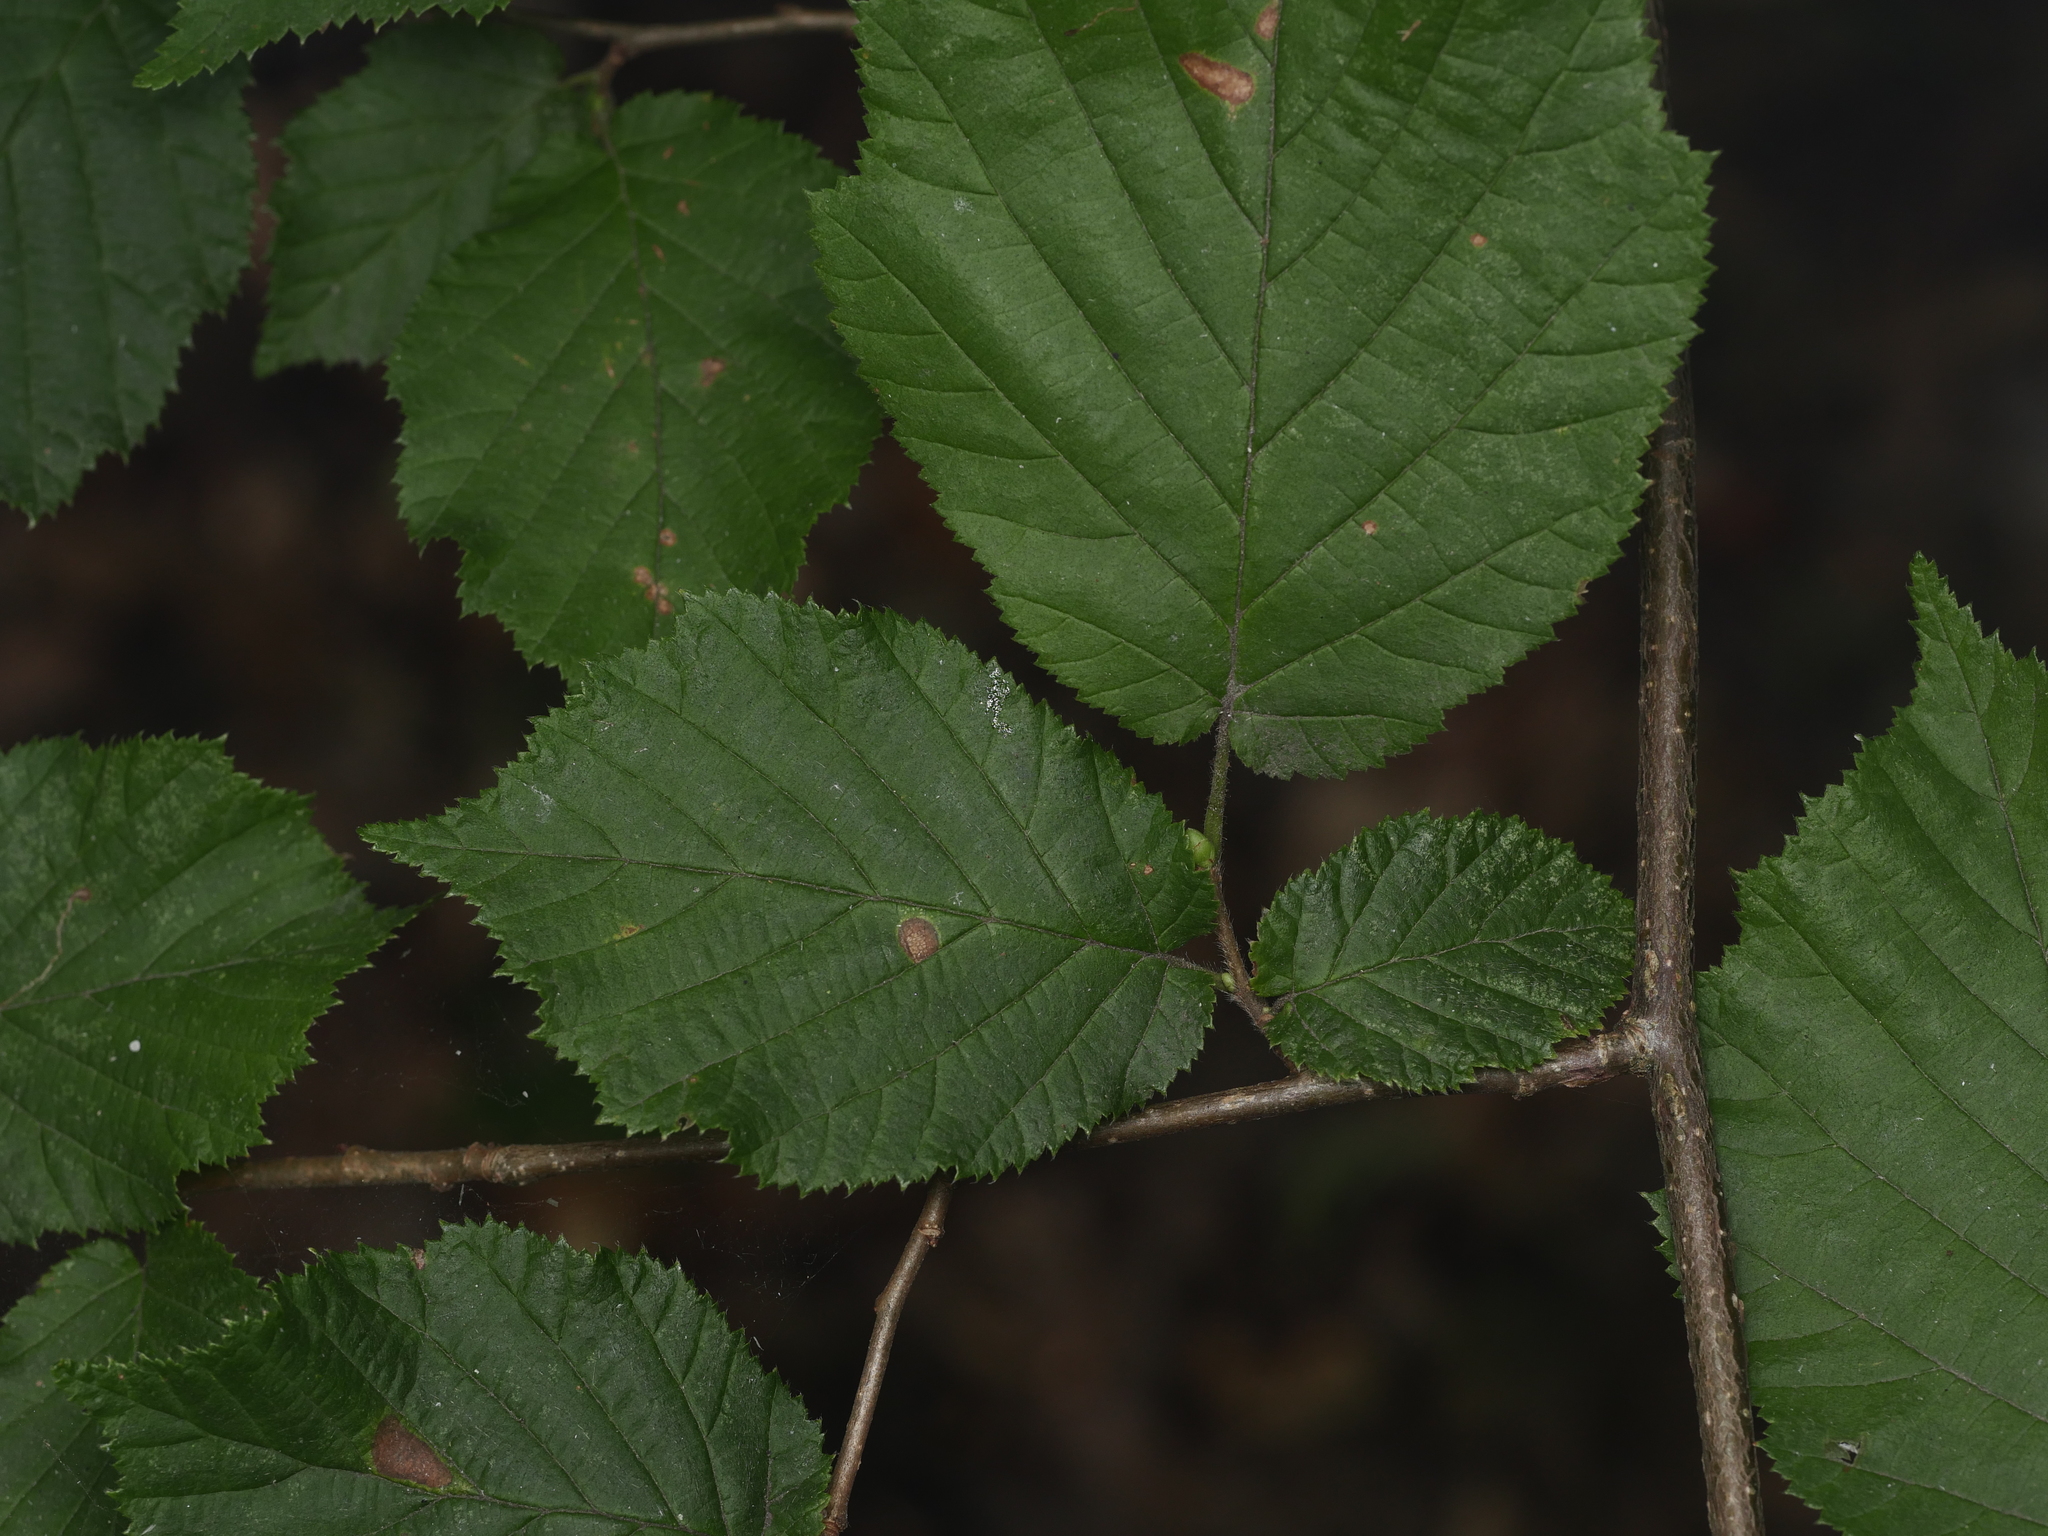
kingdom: Plantae
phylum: Tracheophyta
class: Magnoliopsida
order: Fagales
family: Betulaceae
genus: Corylus
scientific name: Corylus avellana
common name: European hazel
